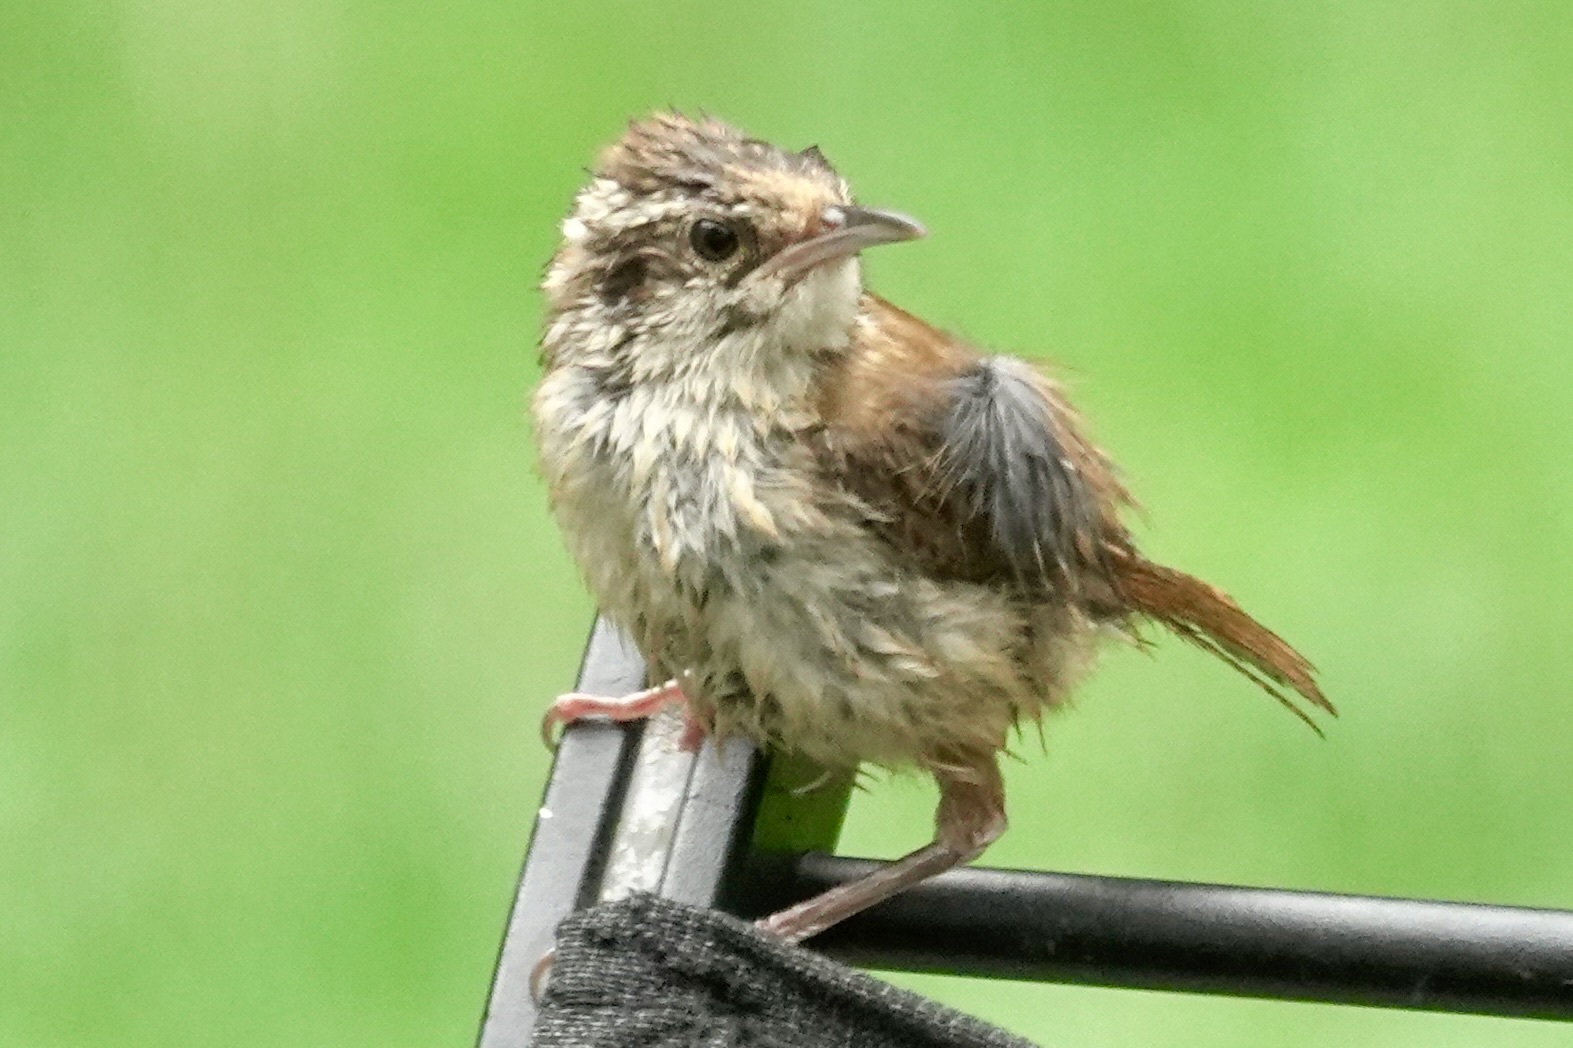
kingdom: Animalia
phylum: Chordata
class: Aves
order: Passeriformes
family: Troglodytidae
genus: Thryothorus
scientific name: Thryothorus ludovicianus
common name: Carolina wren
